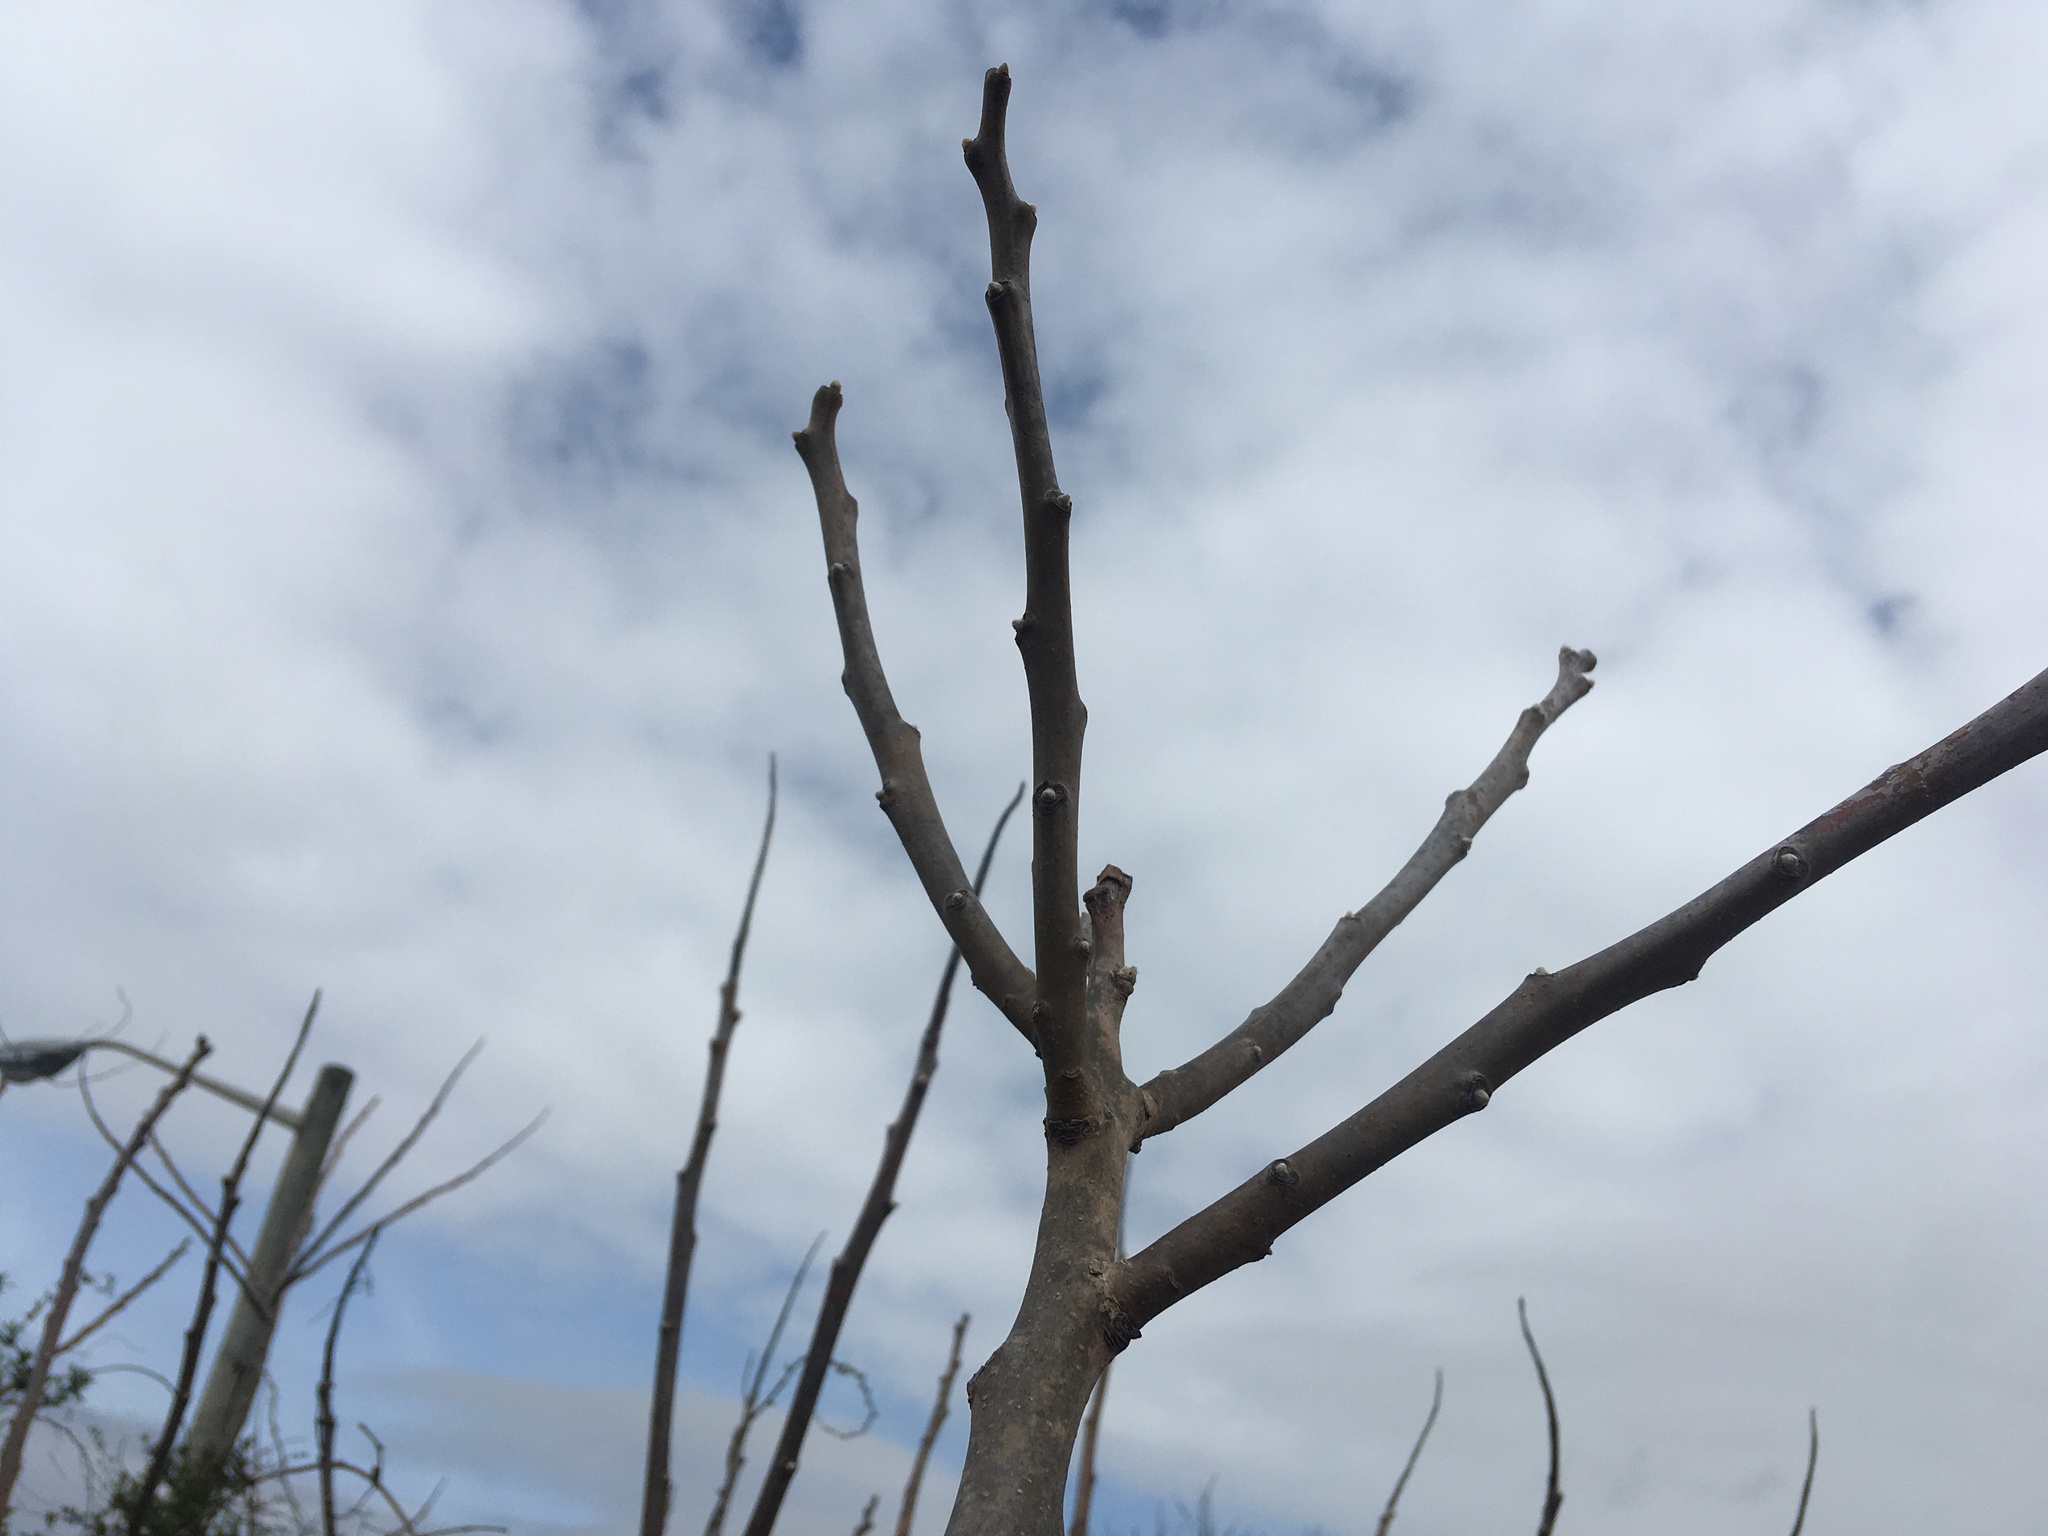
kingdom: Plantae
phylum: Tracheophyta
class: Magnoliopsida
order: Sapindales
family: Anacardiaceae
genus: Rhus
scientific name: Rhus glabra
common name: Scarlet sumac
